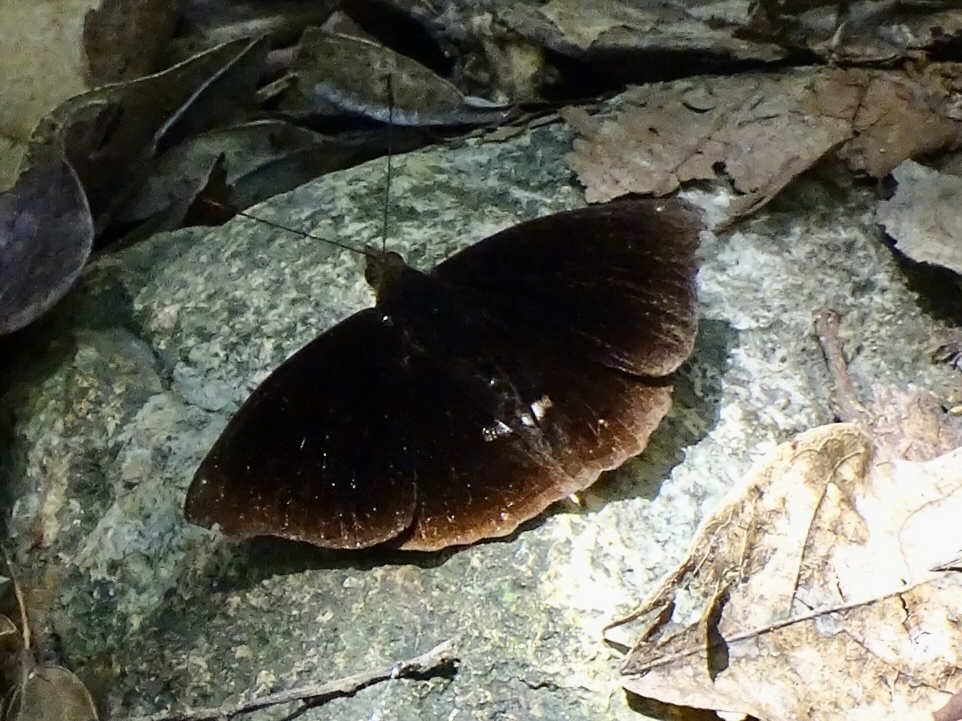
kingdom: Animalia
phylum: Arthropoda
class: Insecta
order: Lepidoptera
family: Nymphalidae
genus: Apatura
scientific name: Apatura Rohana spec
